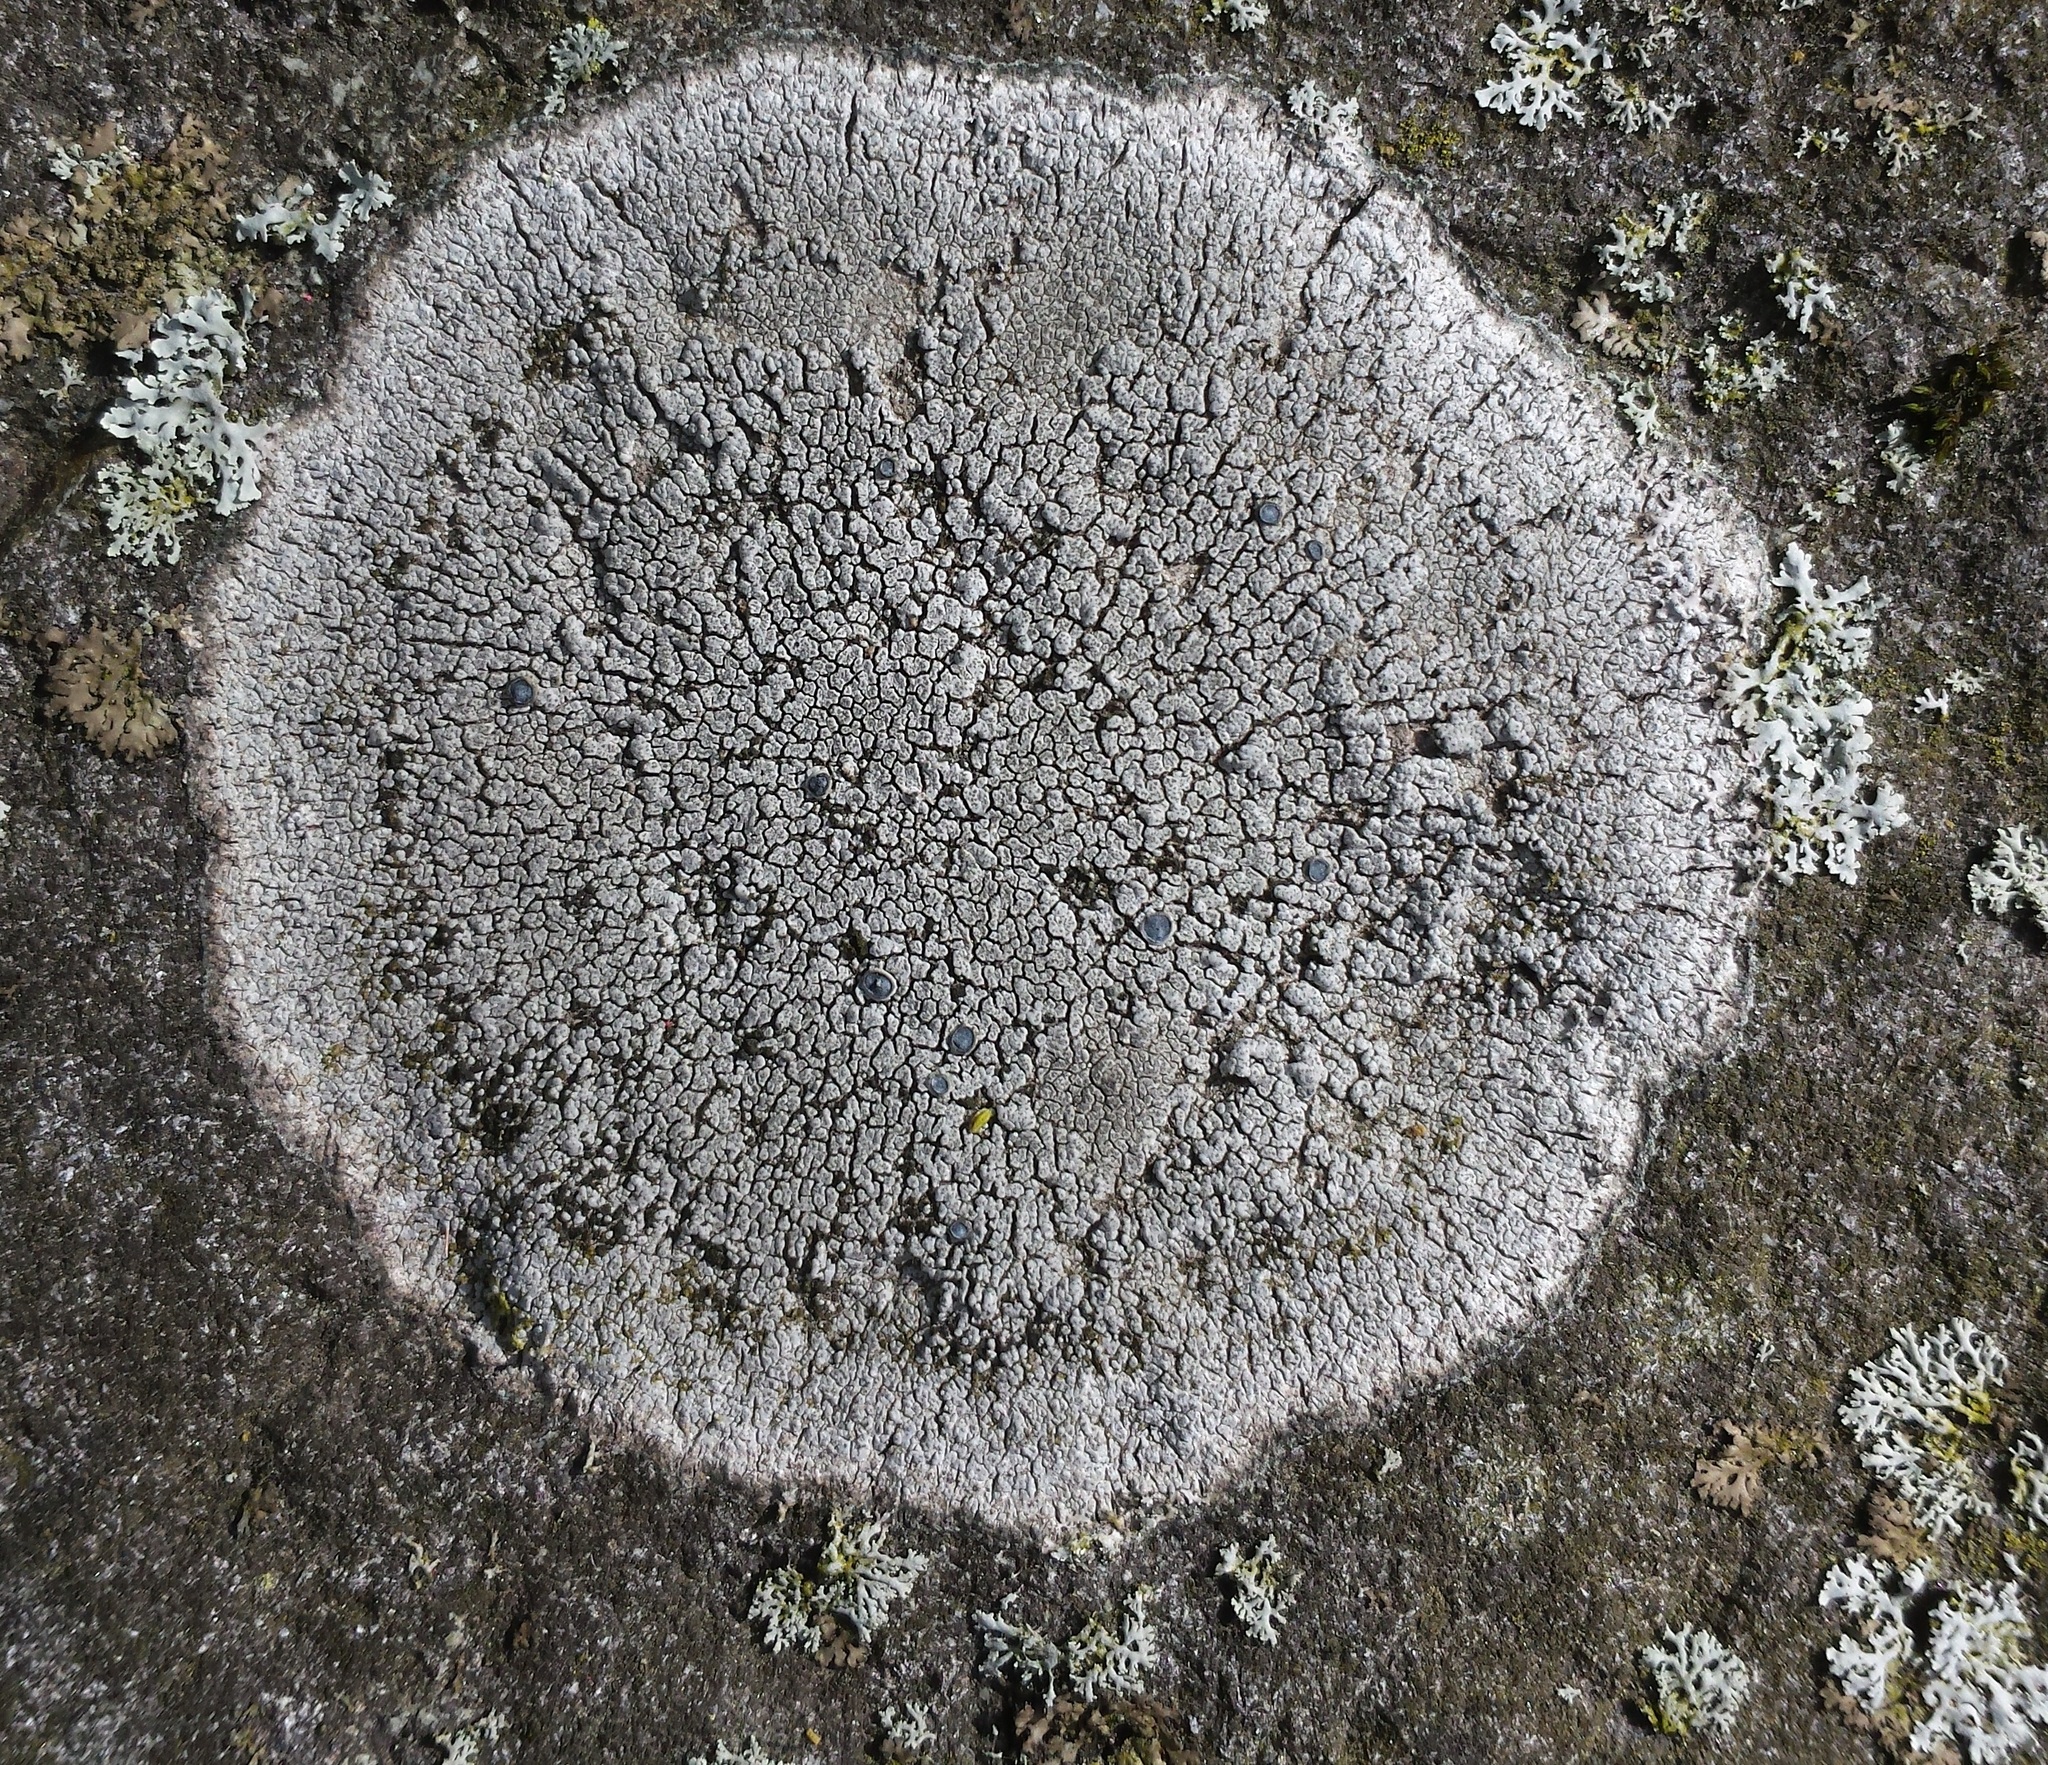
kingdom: Fungi
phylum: Ascomycota
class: Lecanoromycetes
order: Pertusariales
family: Megasporaceae
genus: Circinaria
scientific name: Circinaria caesiocinerea
